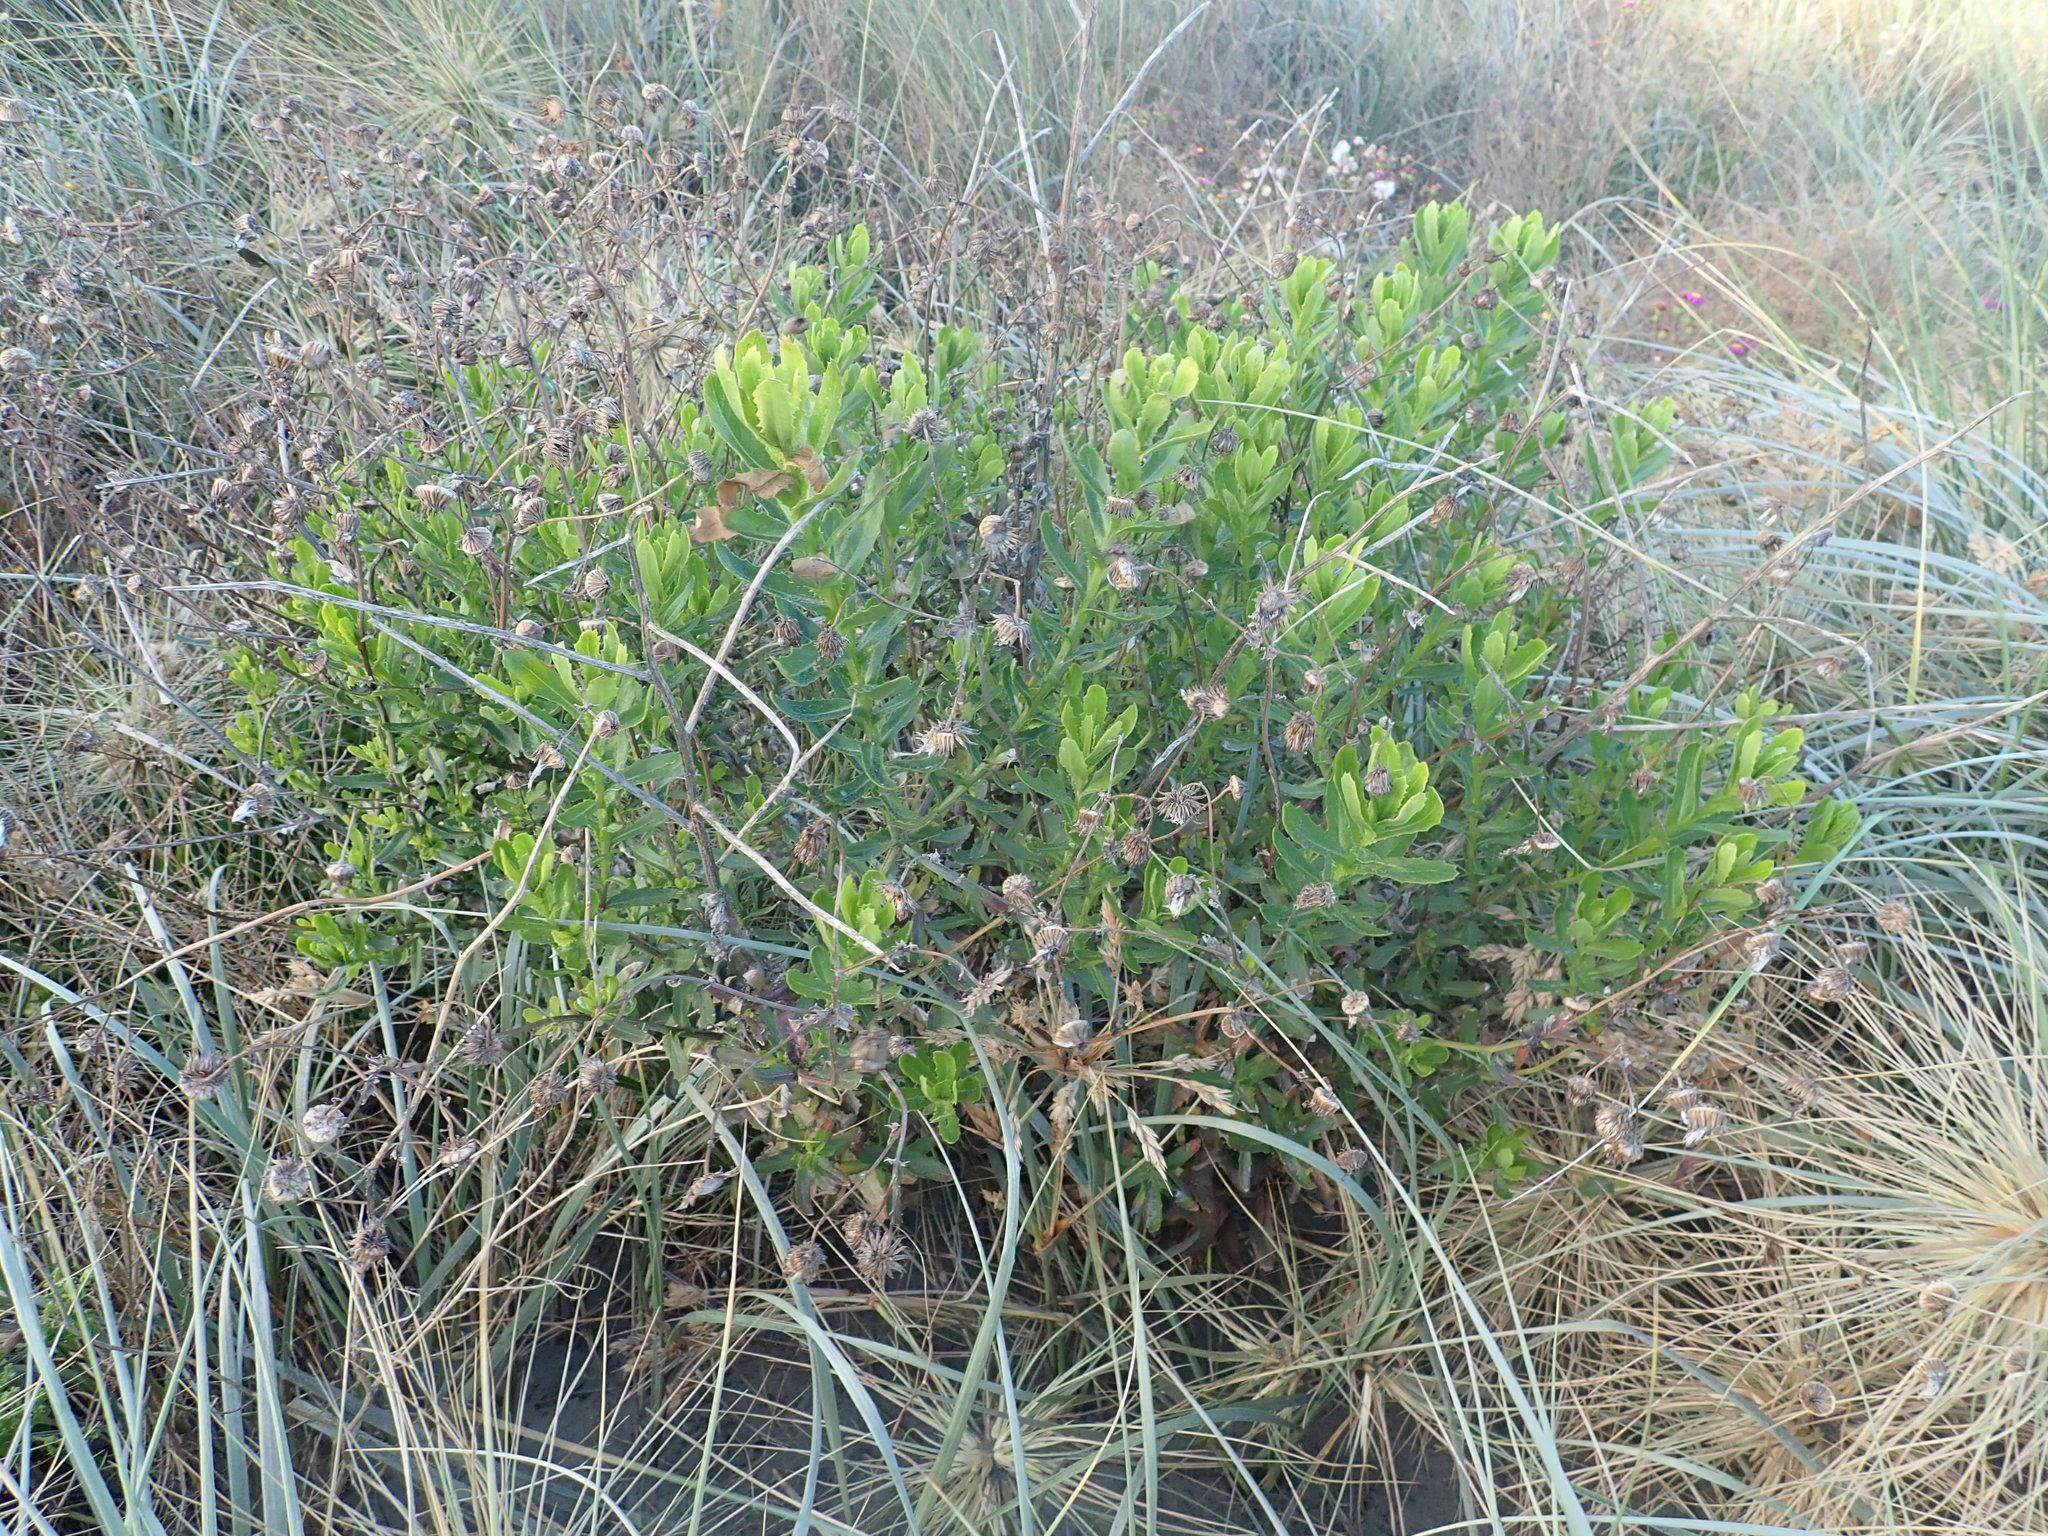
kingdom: Plantae
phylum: Tracheophyta
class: Magnoliopsida
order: Asterales
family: Asteraceae
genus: Senecio
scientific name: Senecio glastifolius
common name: Woad-leaved ragwort
